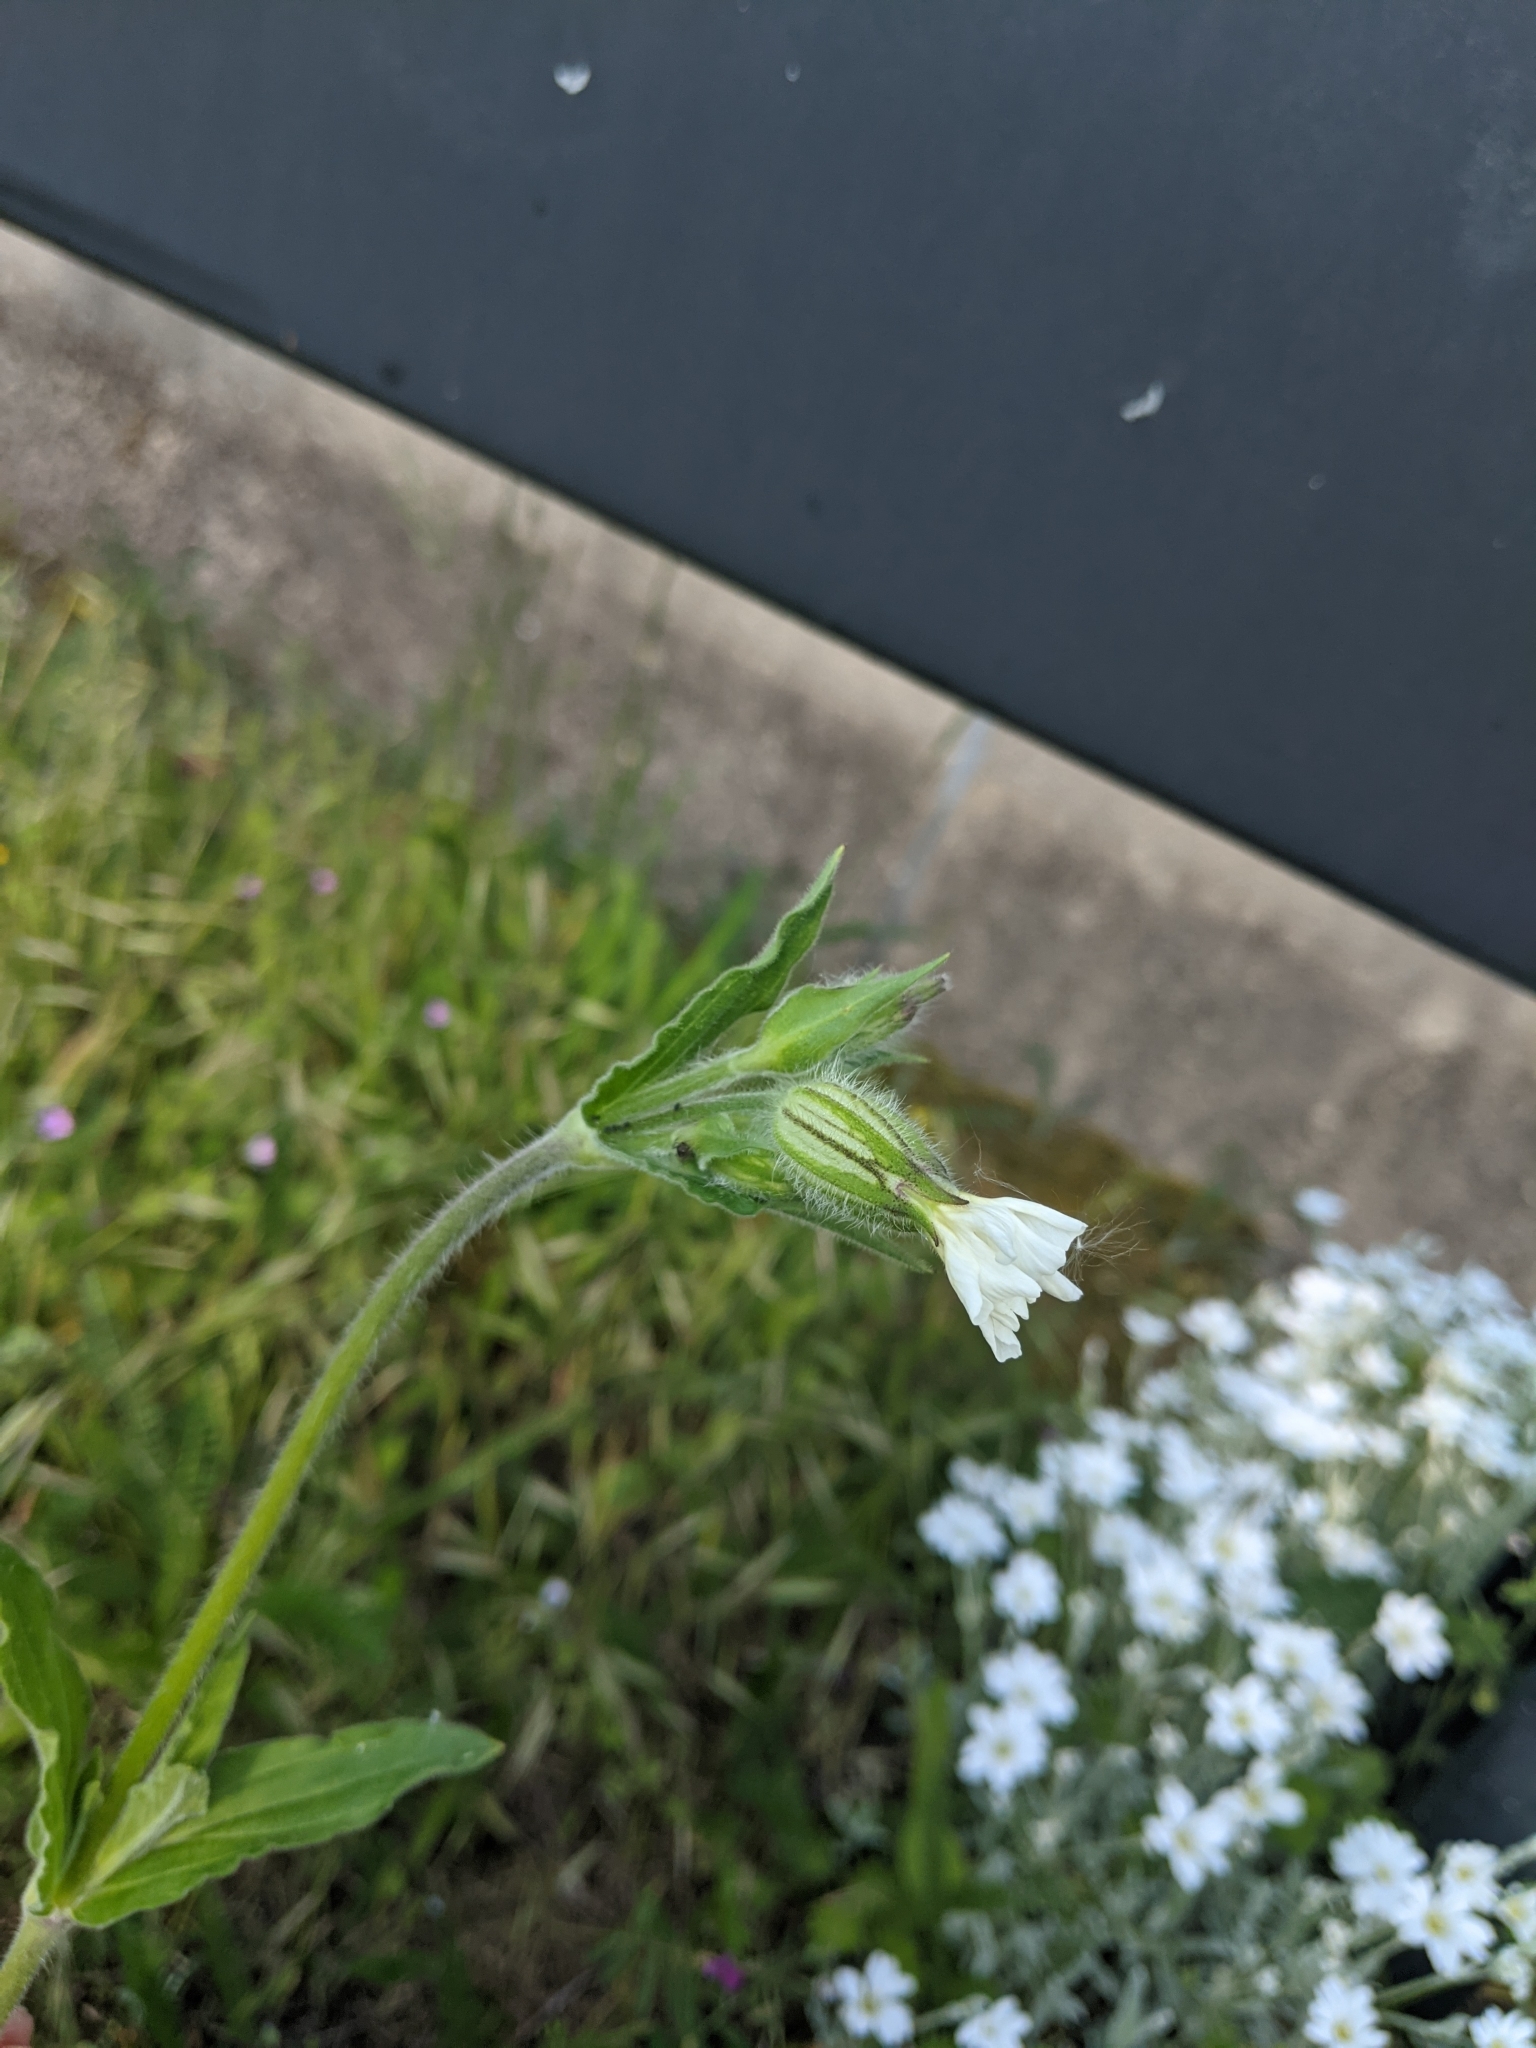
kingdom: Plantae
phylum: Tracheophyta
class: Magnoliopsida
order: Caryophyllales
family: Caryophyllaceae
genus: Silene
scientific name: Silene latifolia
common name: White campion
